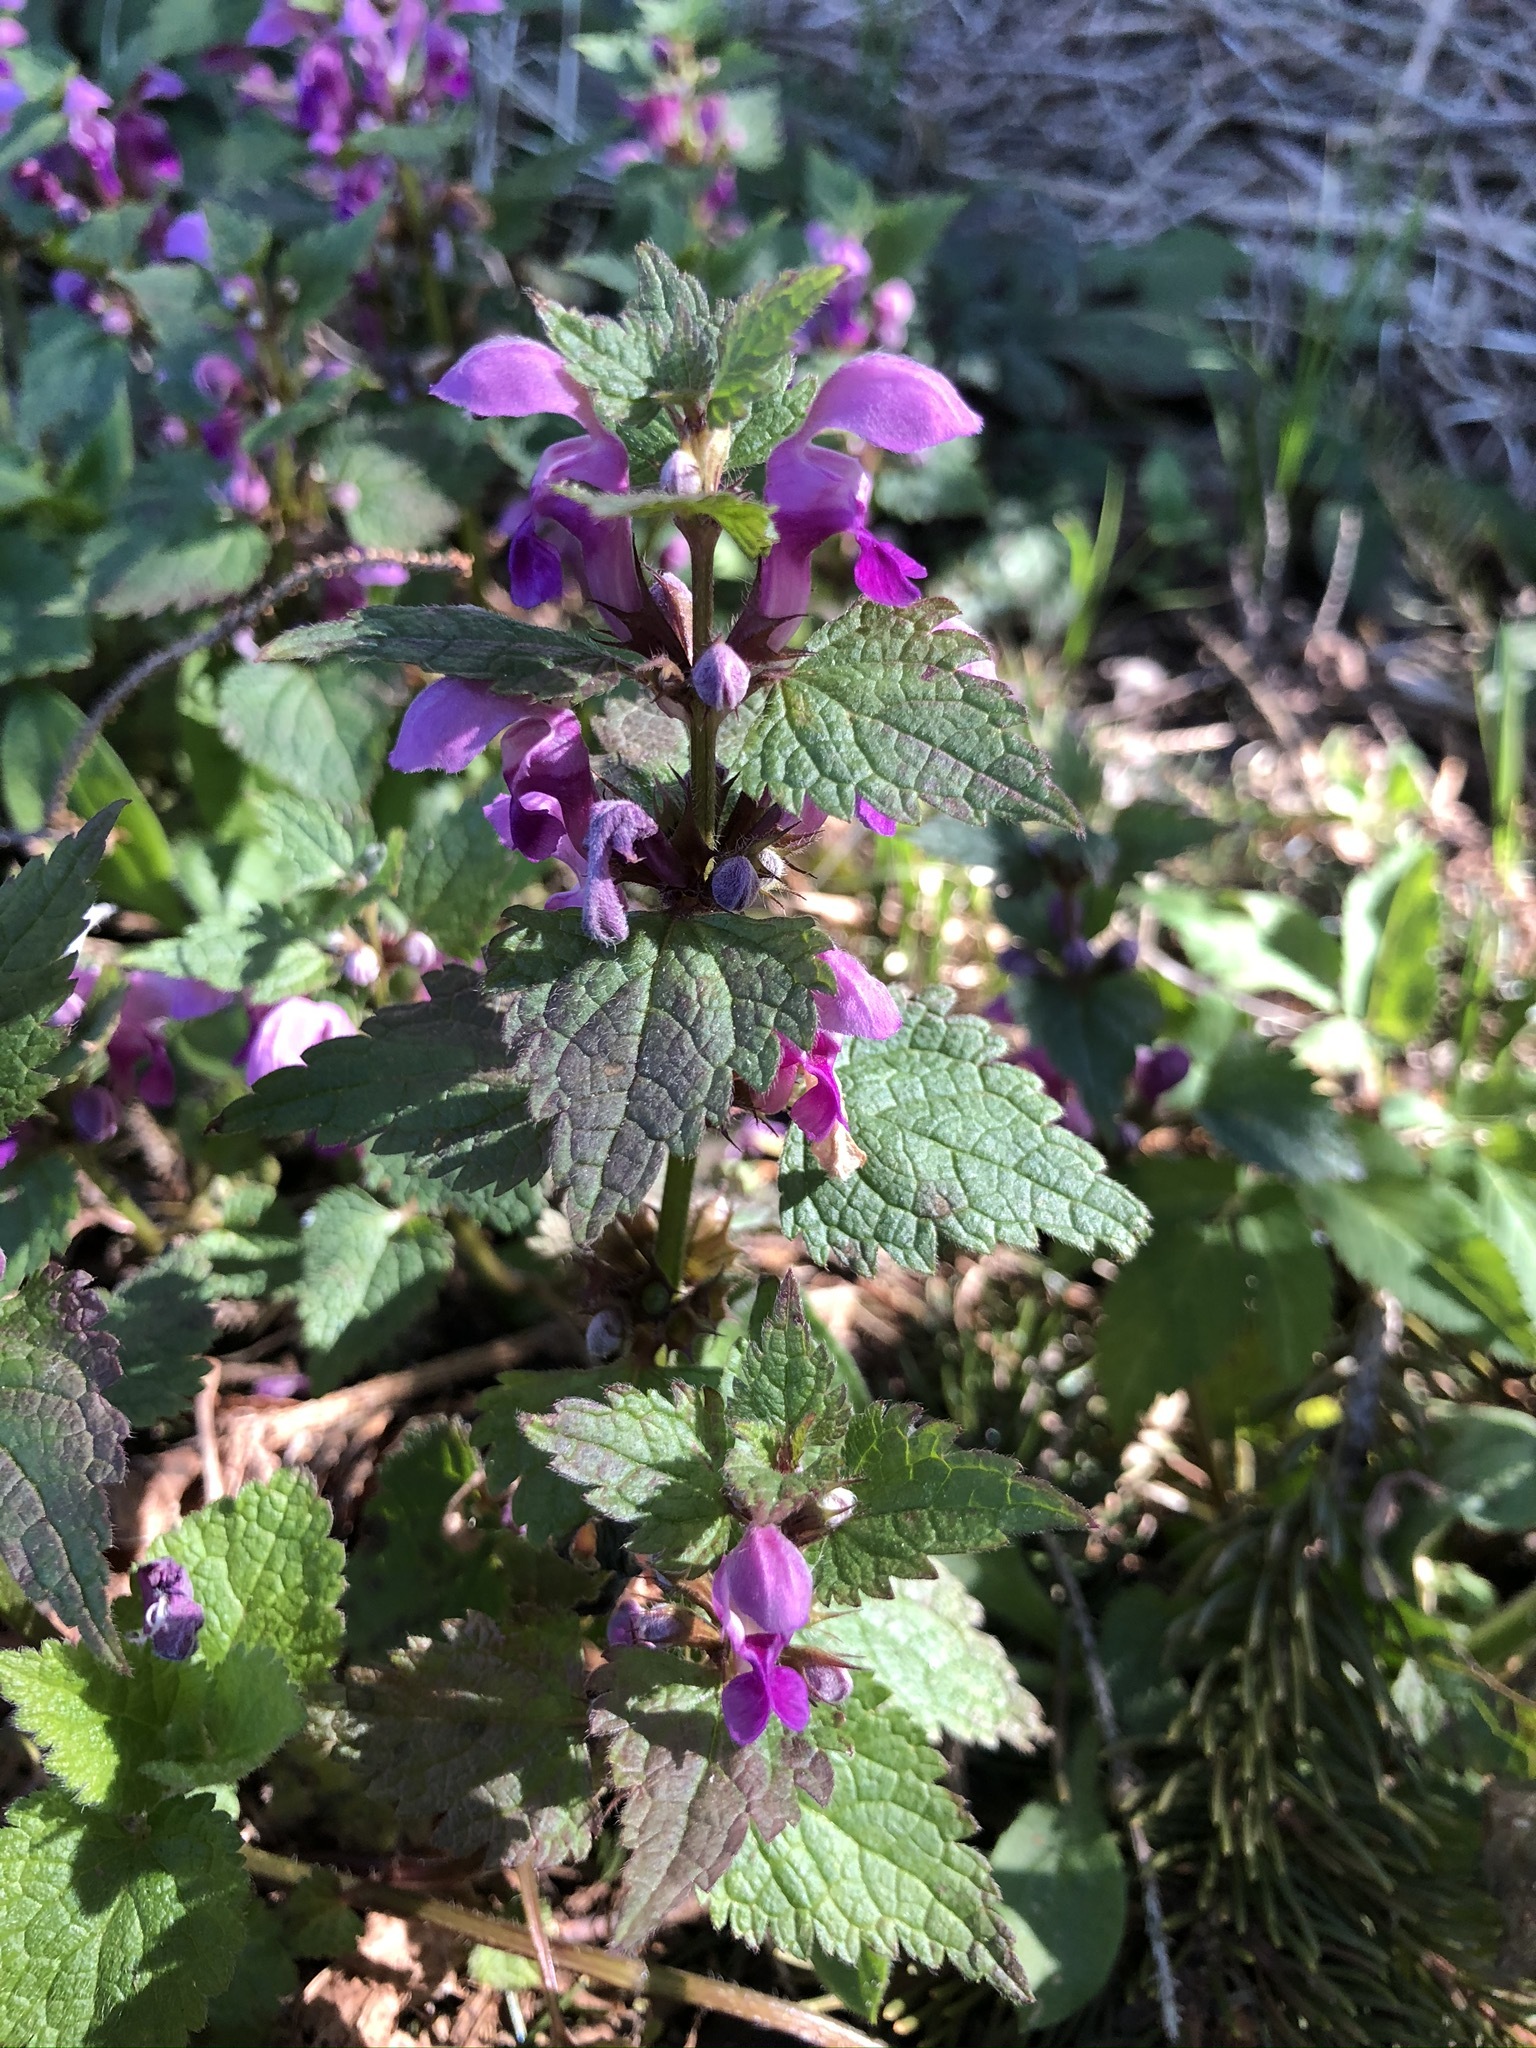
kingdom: Plantae
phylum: Tracheophyta
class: Magnoliopsida
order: Lamiales
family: Lamiaceae
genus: Lamium
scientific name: Lamium maculatum
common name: Spotted dead-nettle
